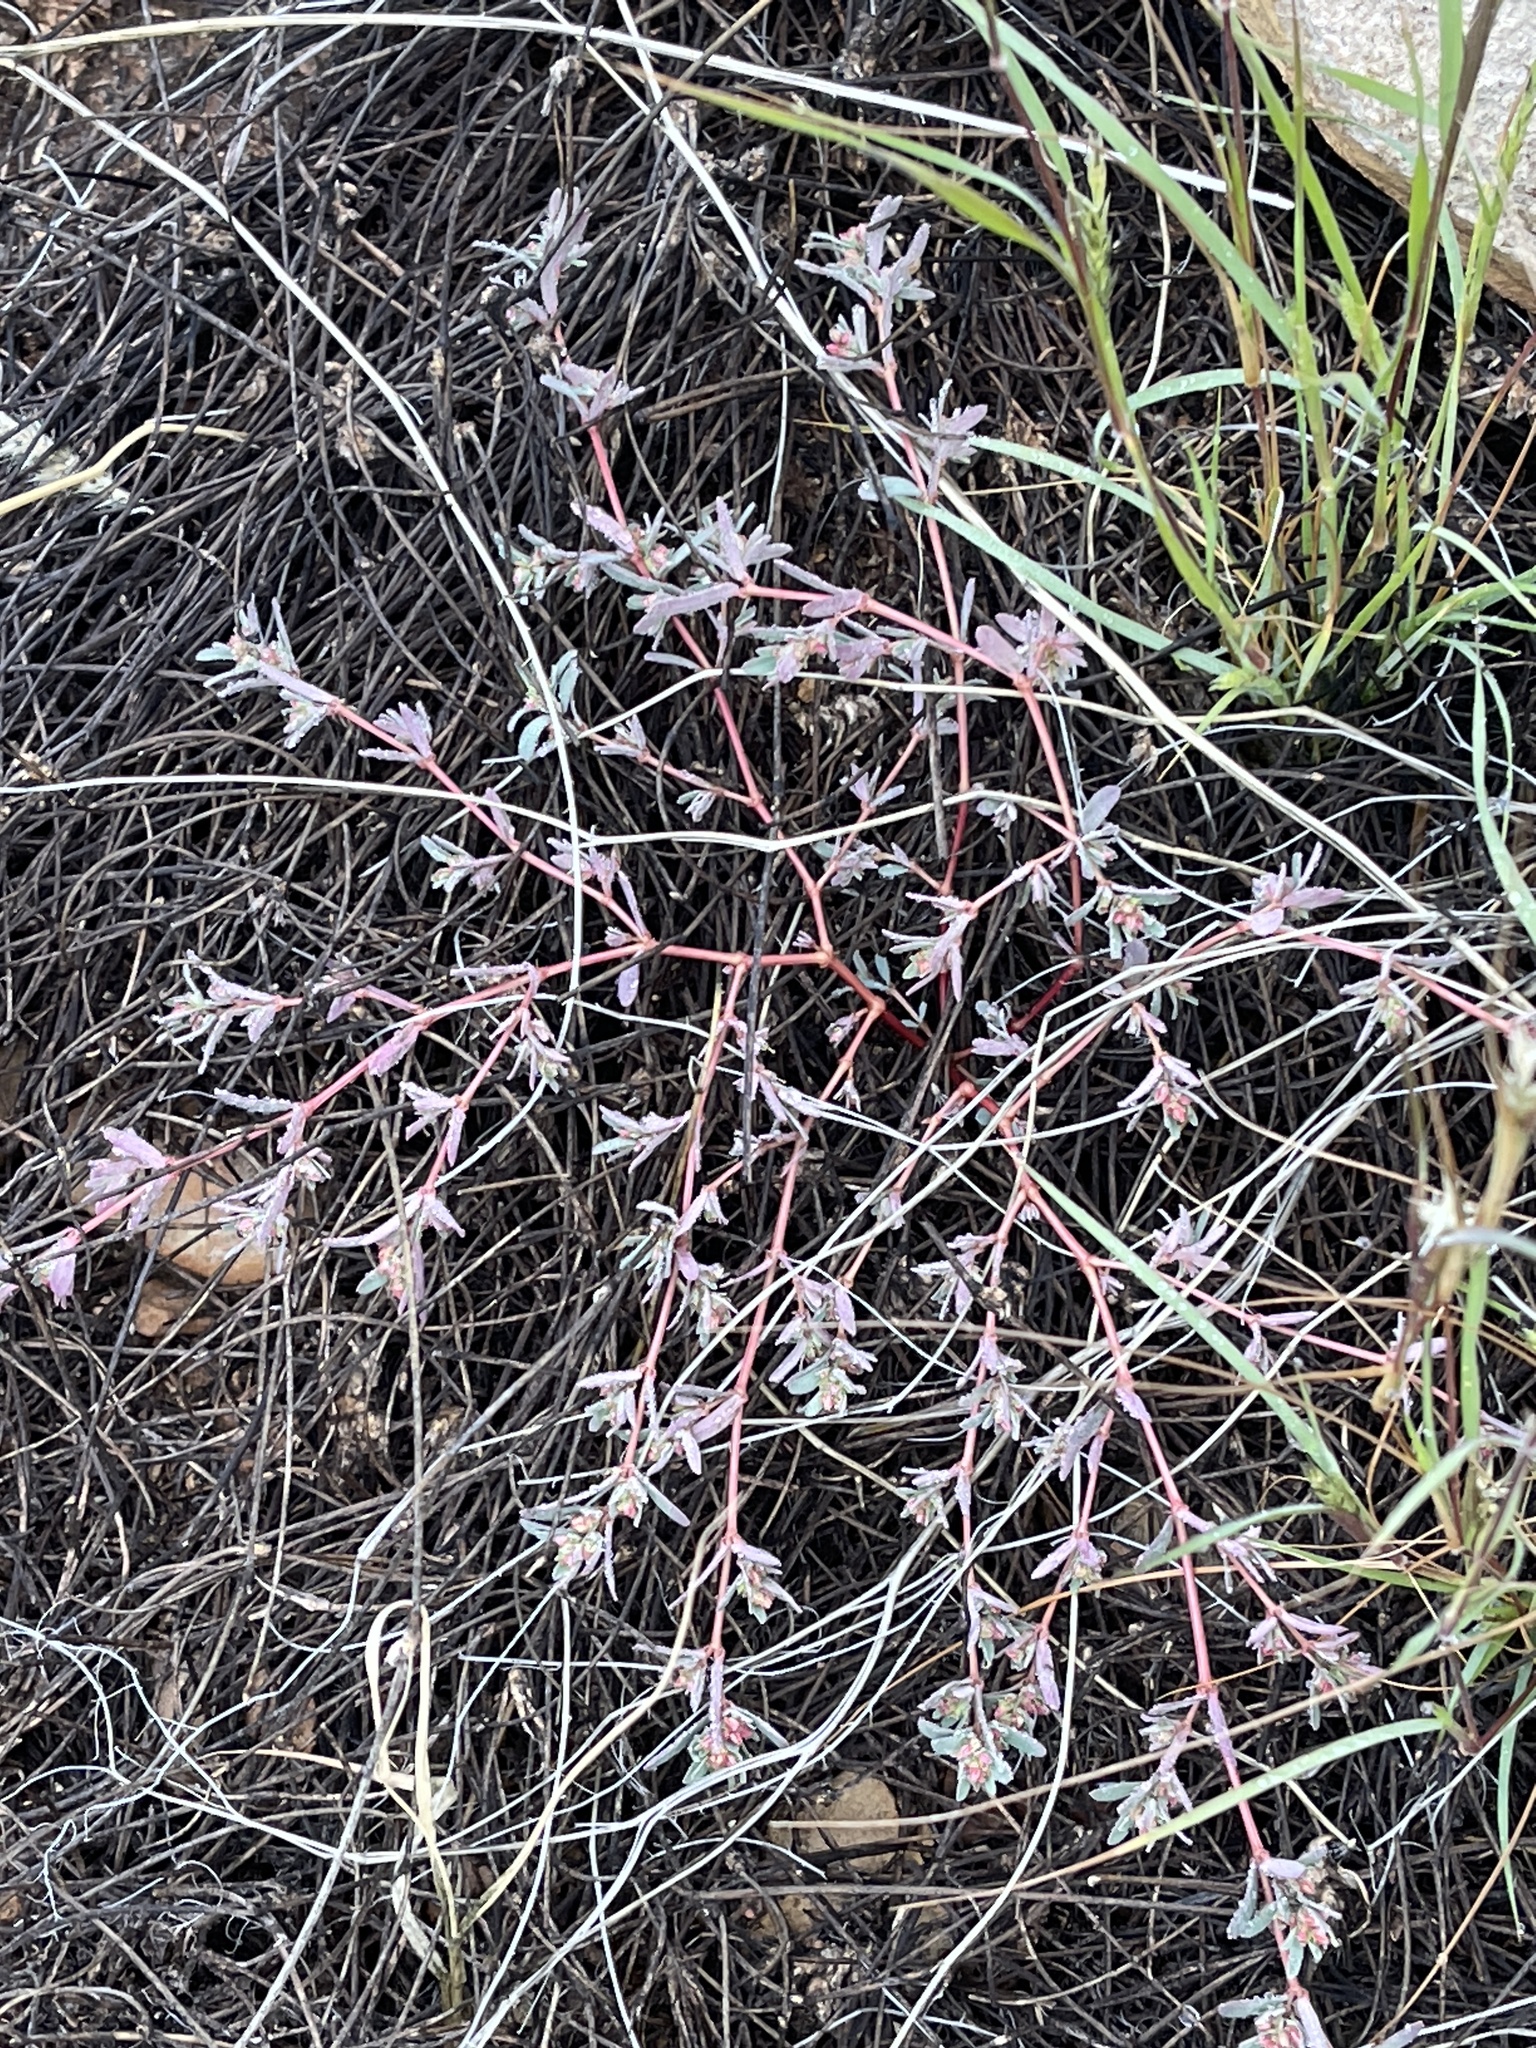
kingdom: Plantae
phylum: Tracheophyta
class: Magnoliopsida
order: Malpighiales
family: Euphorbiaceae
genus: Euphorbia
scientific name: Euphorbia serpillifolia
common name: Thyme-leaf spurge
